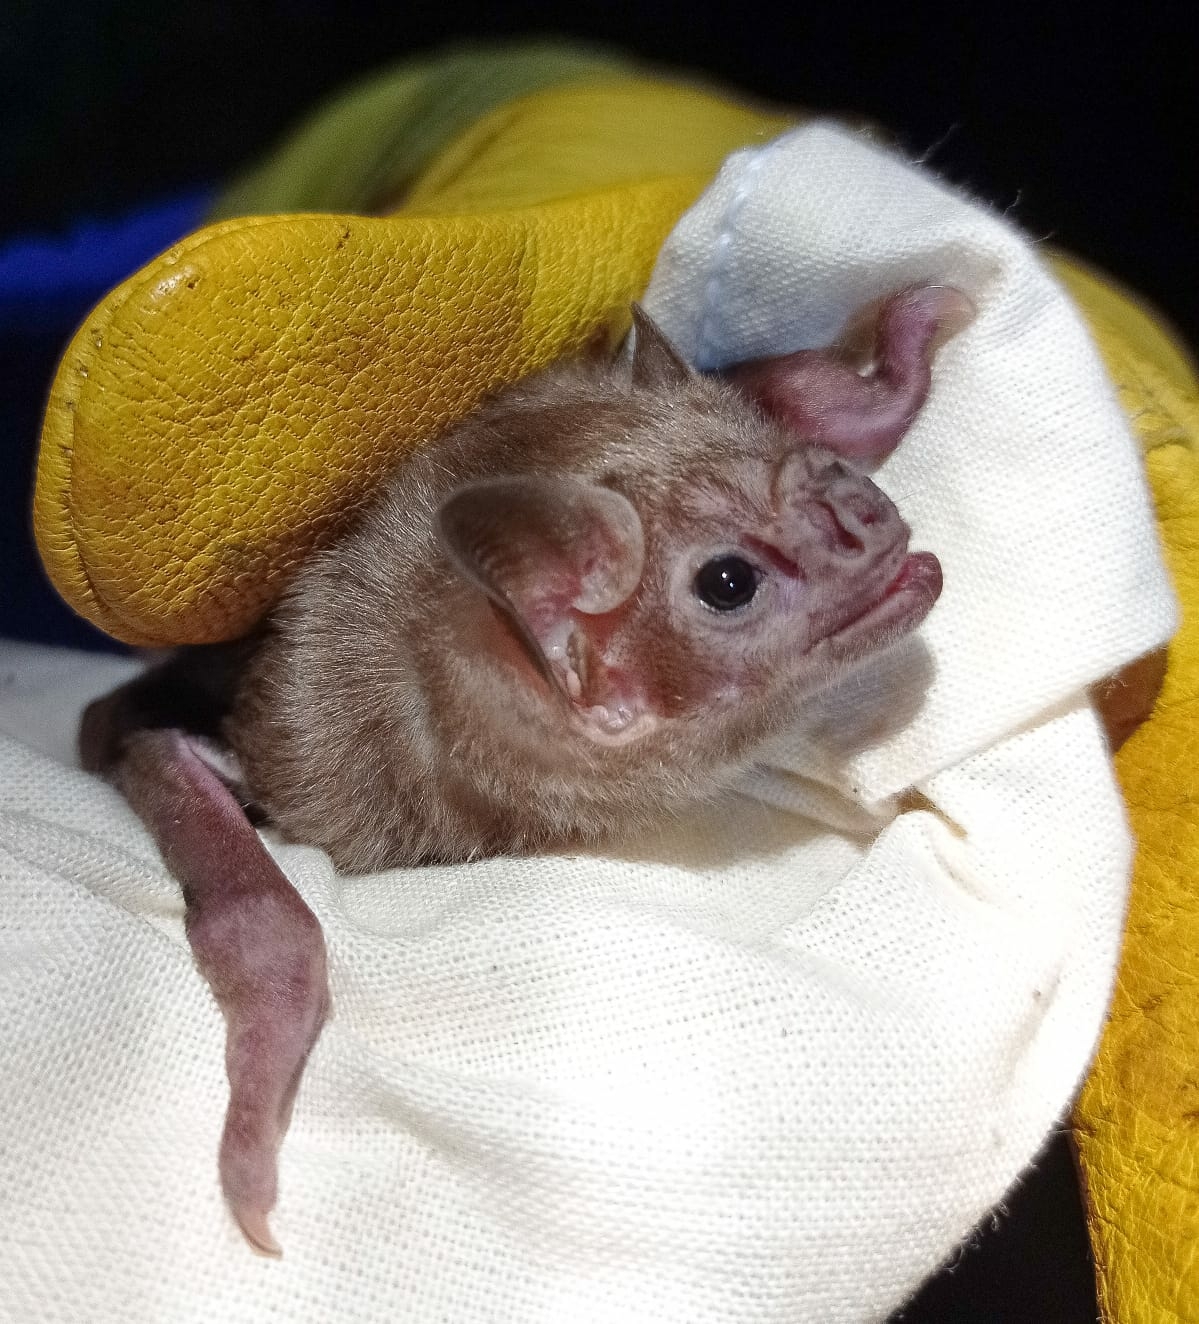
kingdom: Animalia
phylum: Chordata
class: Mammalia
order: Chiroptera
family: Phyllostomidae
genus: Diaemus
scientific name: Diaemus youngii
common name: White-winged vampire bat
